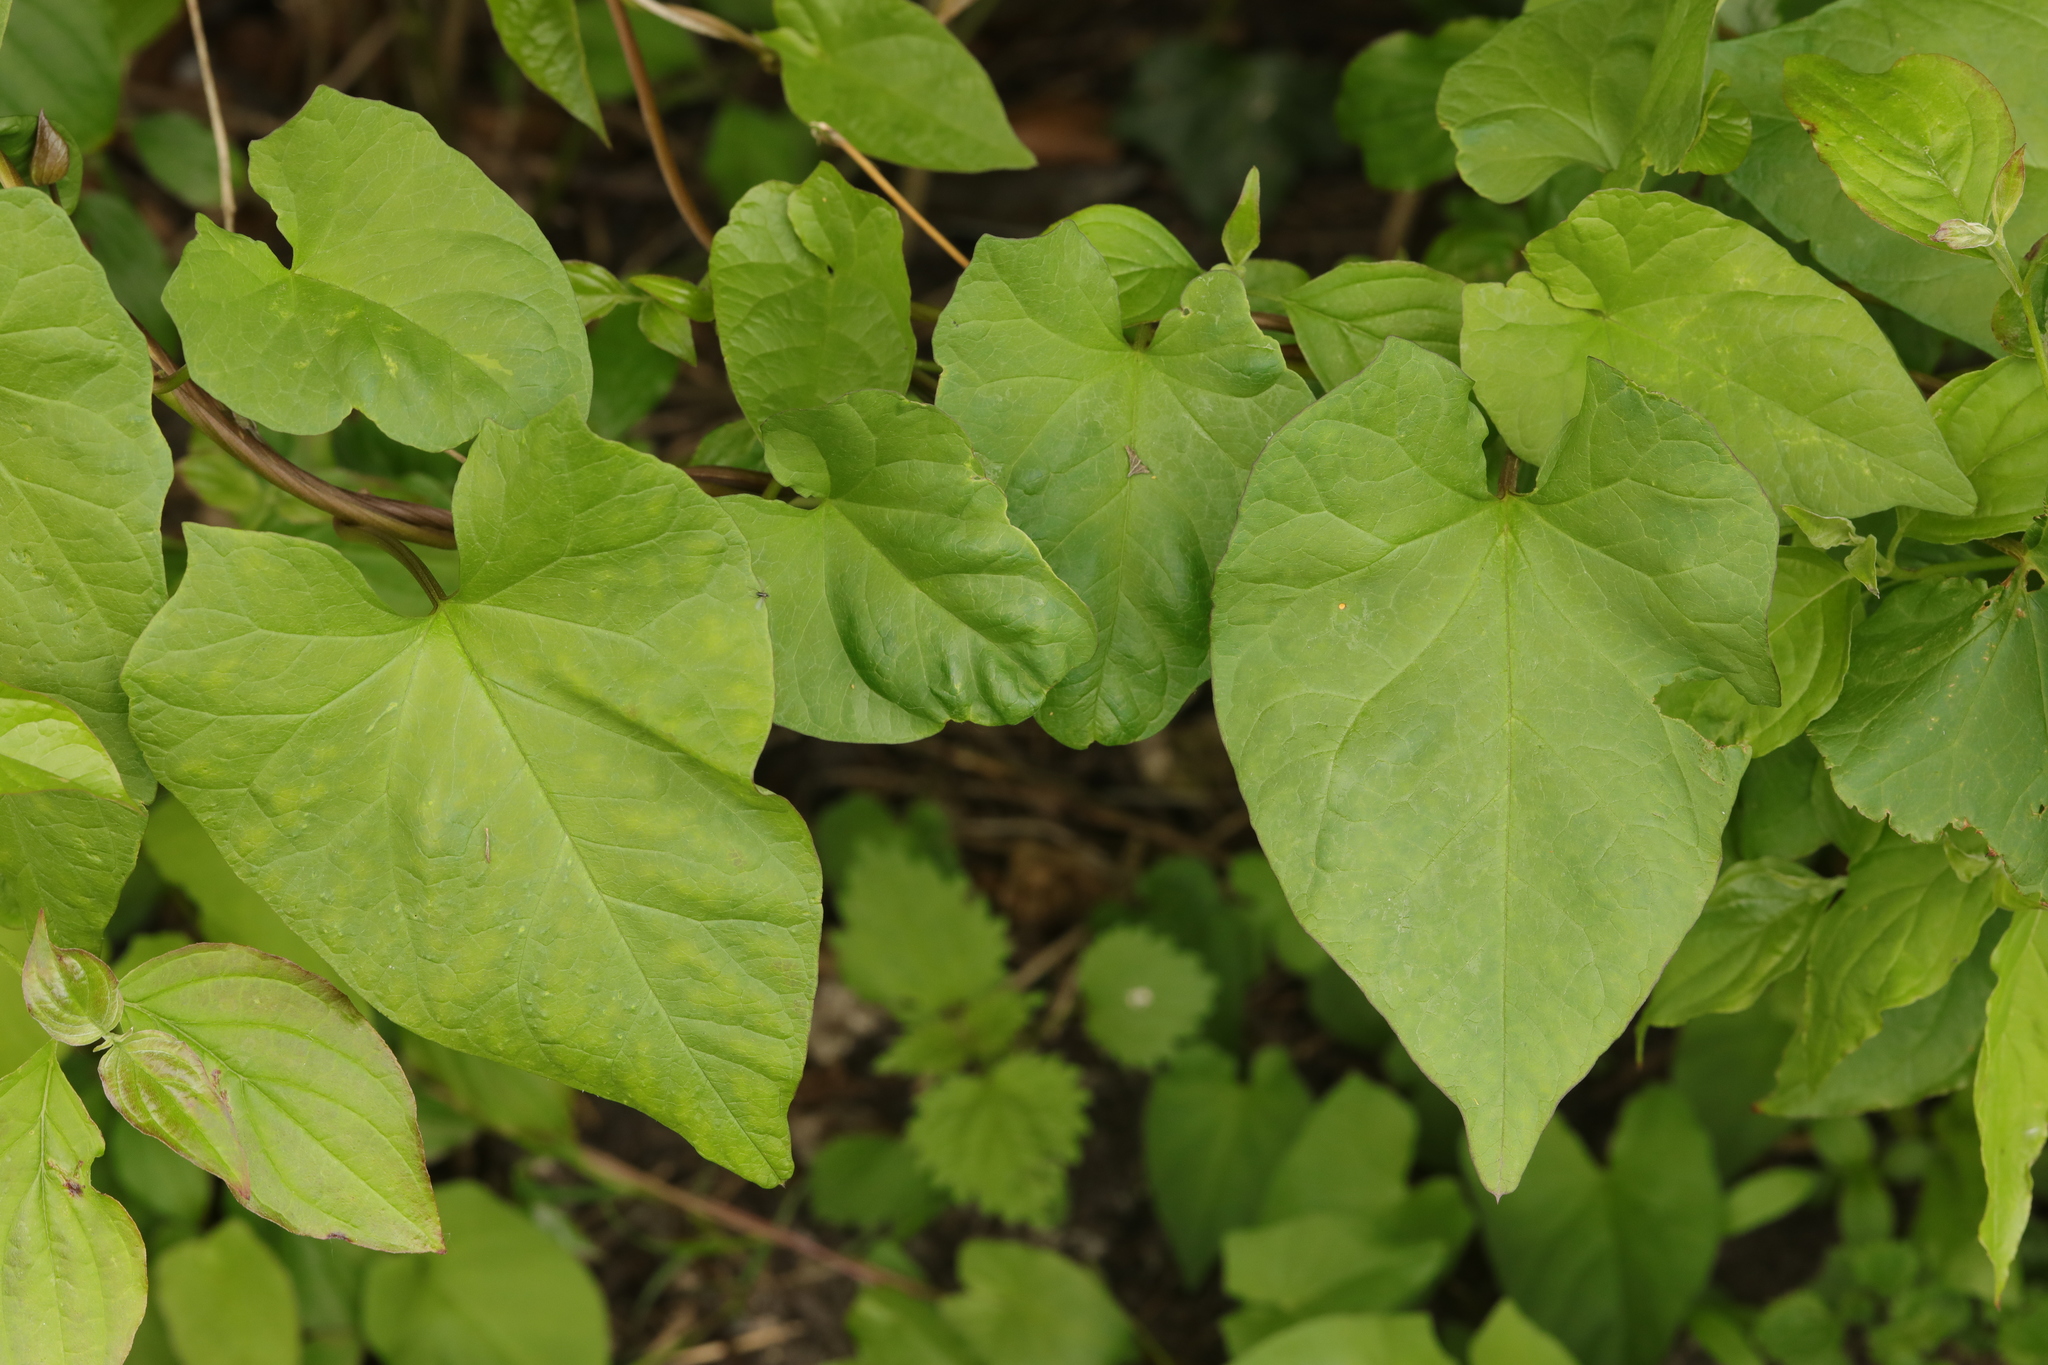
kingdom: Plantae
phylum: Tracheophyta
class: Magnoliopsida
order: Solanales
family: Convolvulaceae
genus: Calystegia
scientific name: Calystegia
